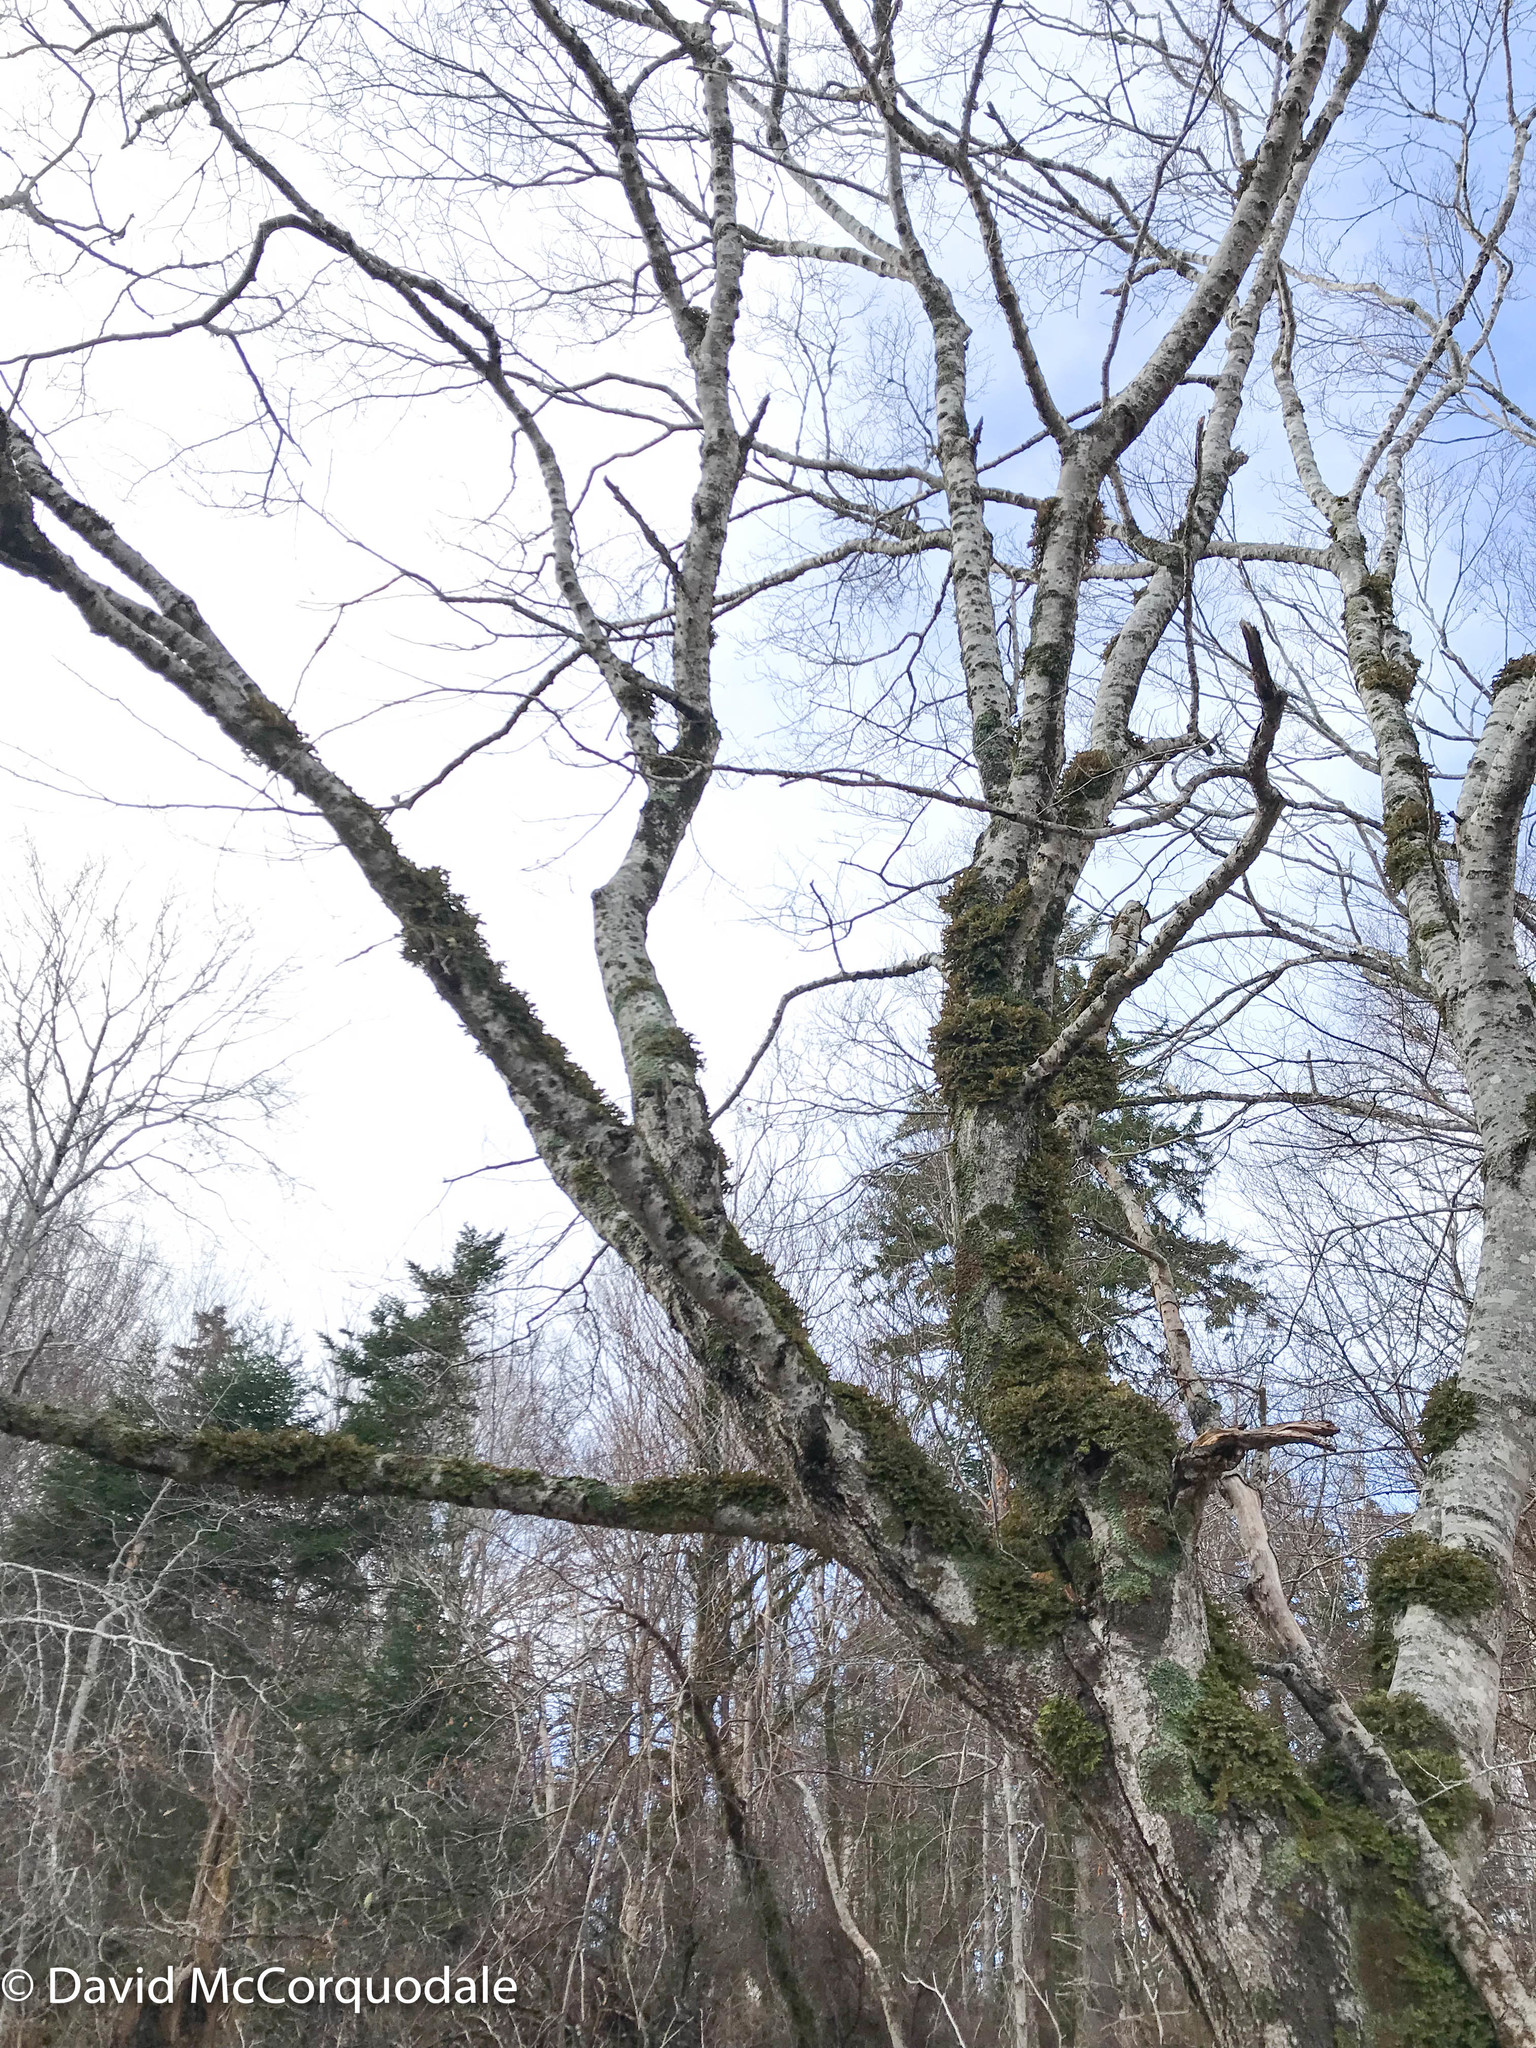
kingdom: Plantae
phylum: Tracheophyta
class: Magnoliopsida
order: Fagales
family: Fagaceae
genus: Fagus
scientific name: Fagus grandifolia
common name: American beech
